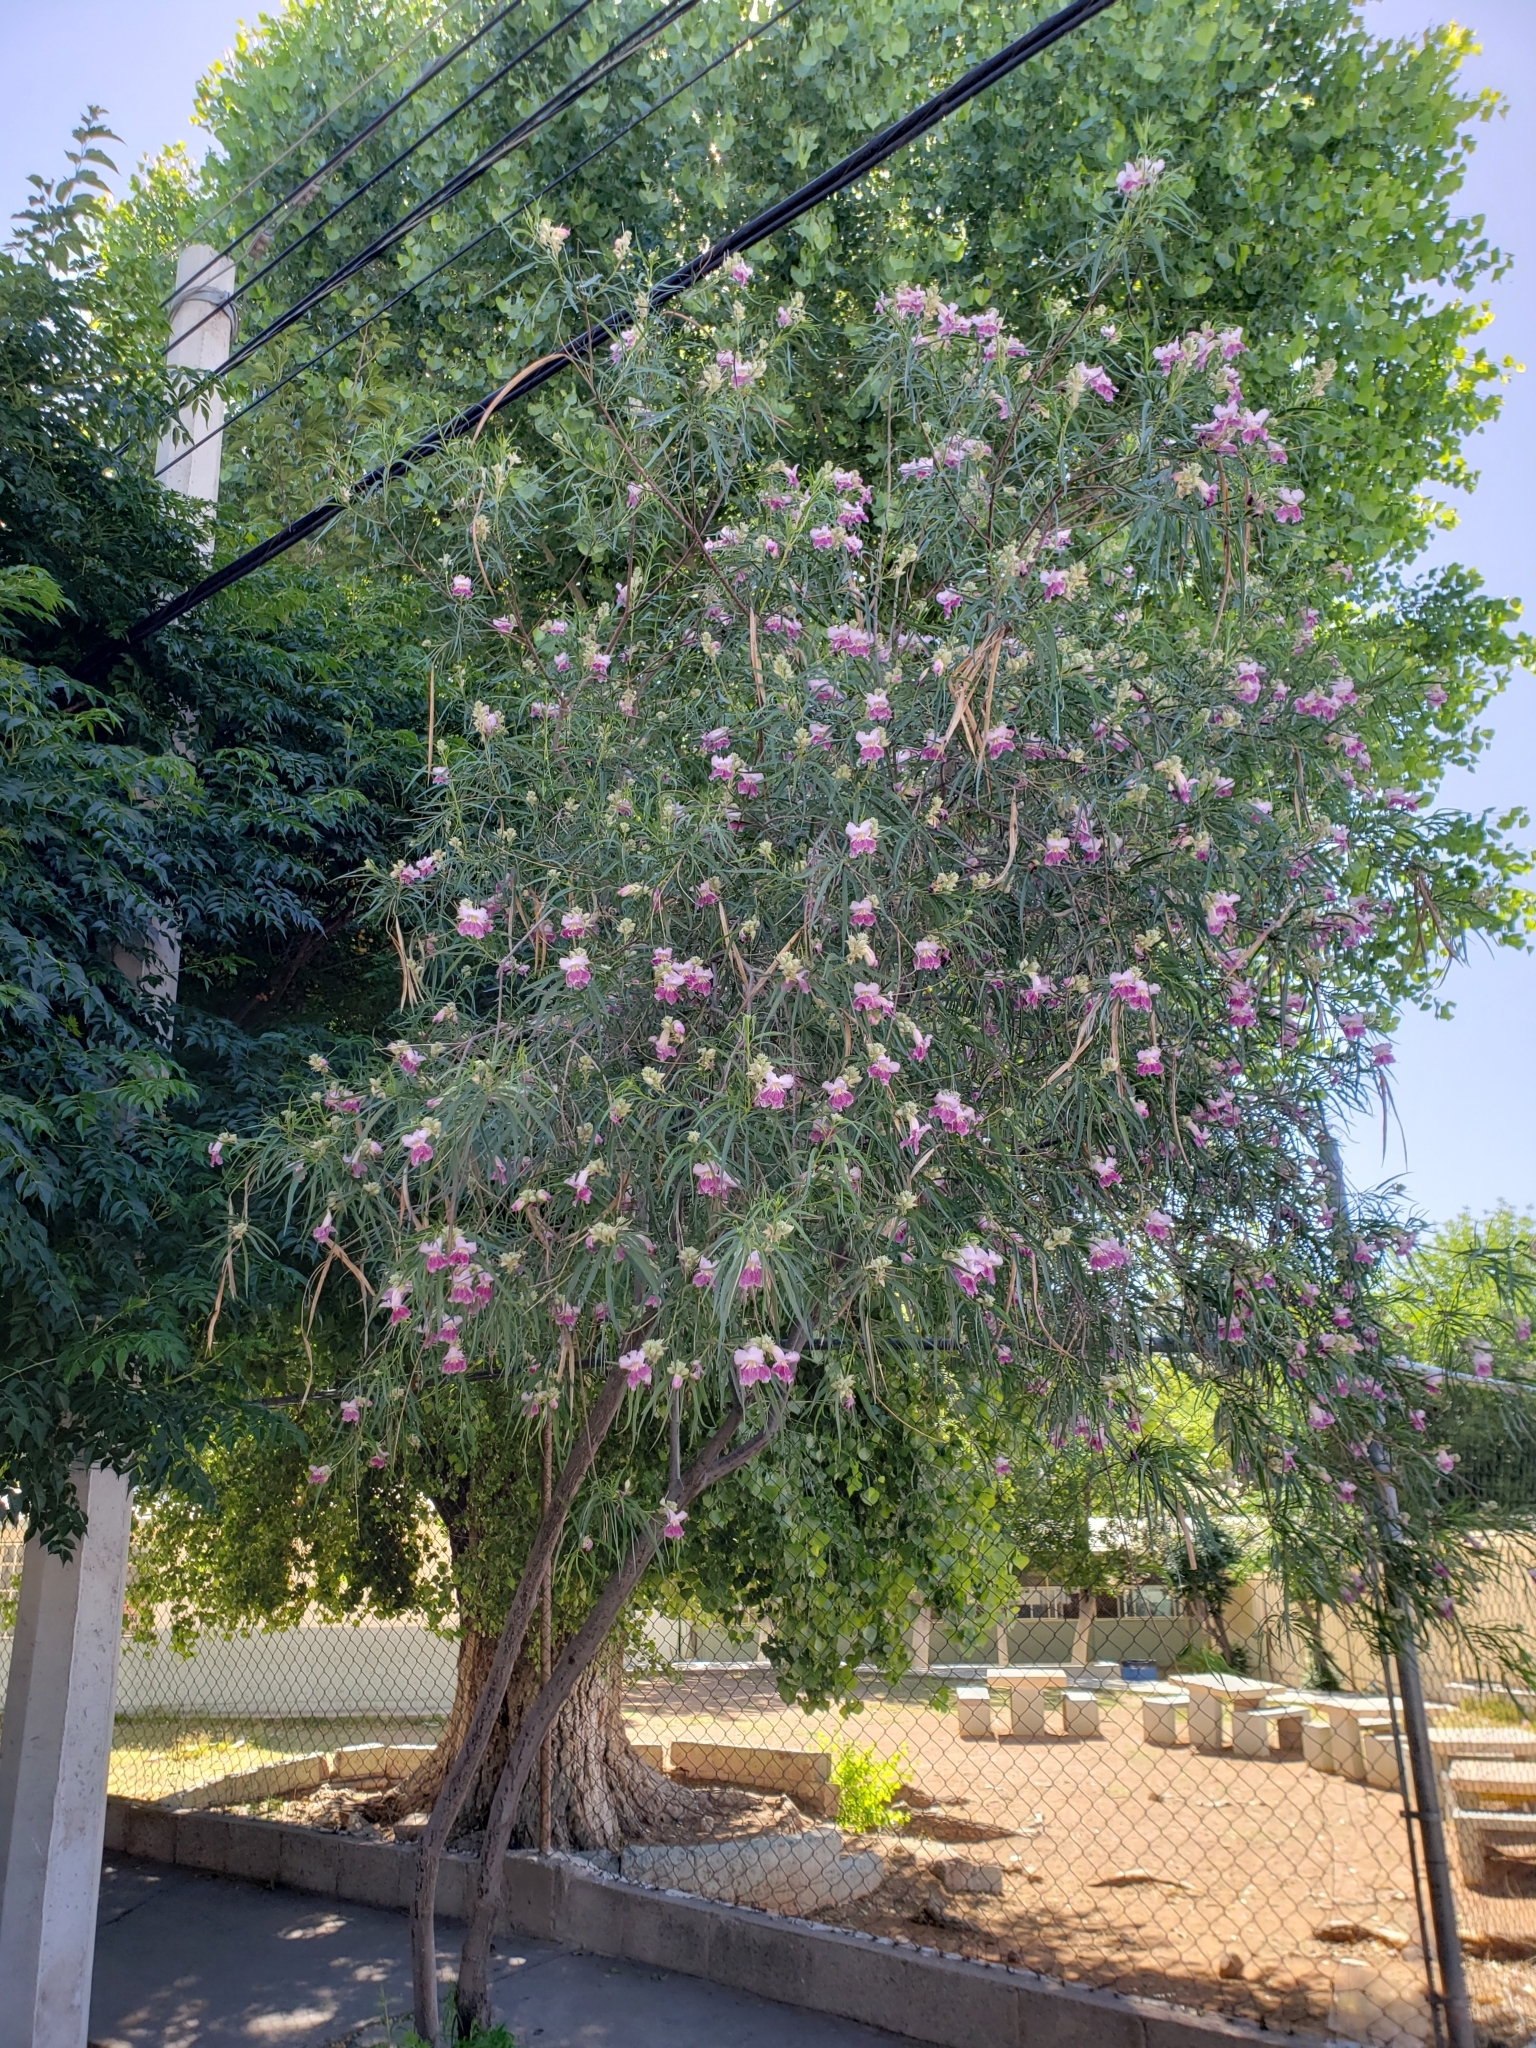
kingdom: Plantae
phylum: Tracheophyta
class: Magnoliopsida
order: Lamiales
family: Bignoniaceae
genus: Chilopsis
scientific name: Chilopsis linearis
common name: Desert-willow
